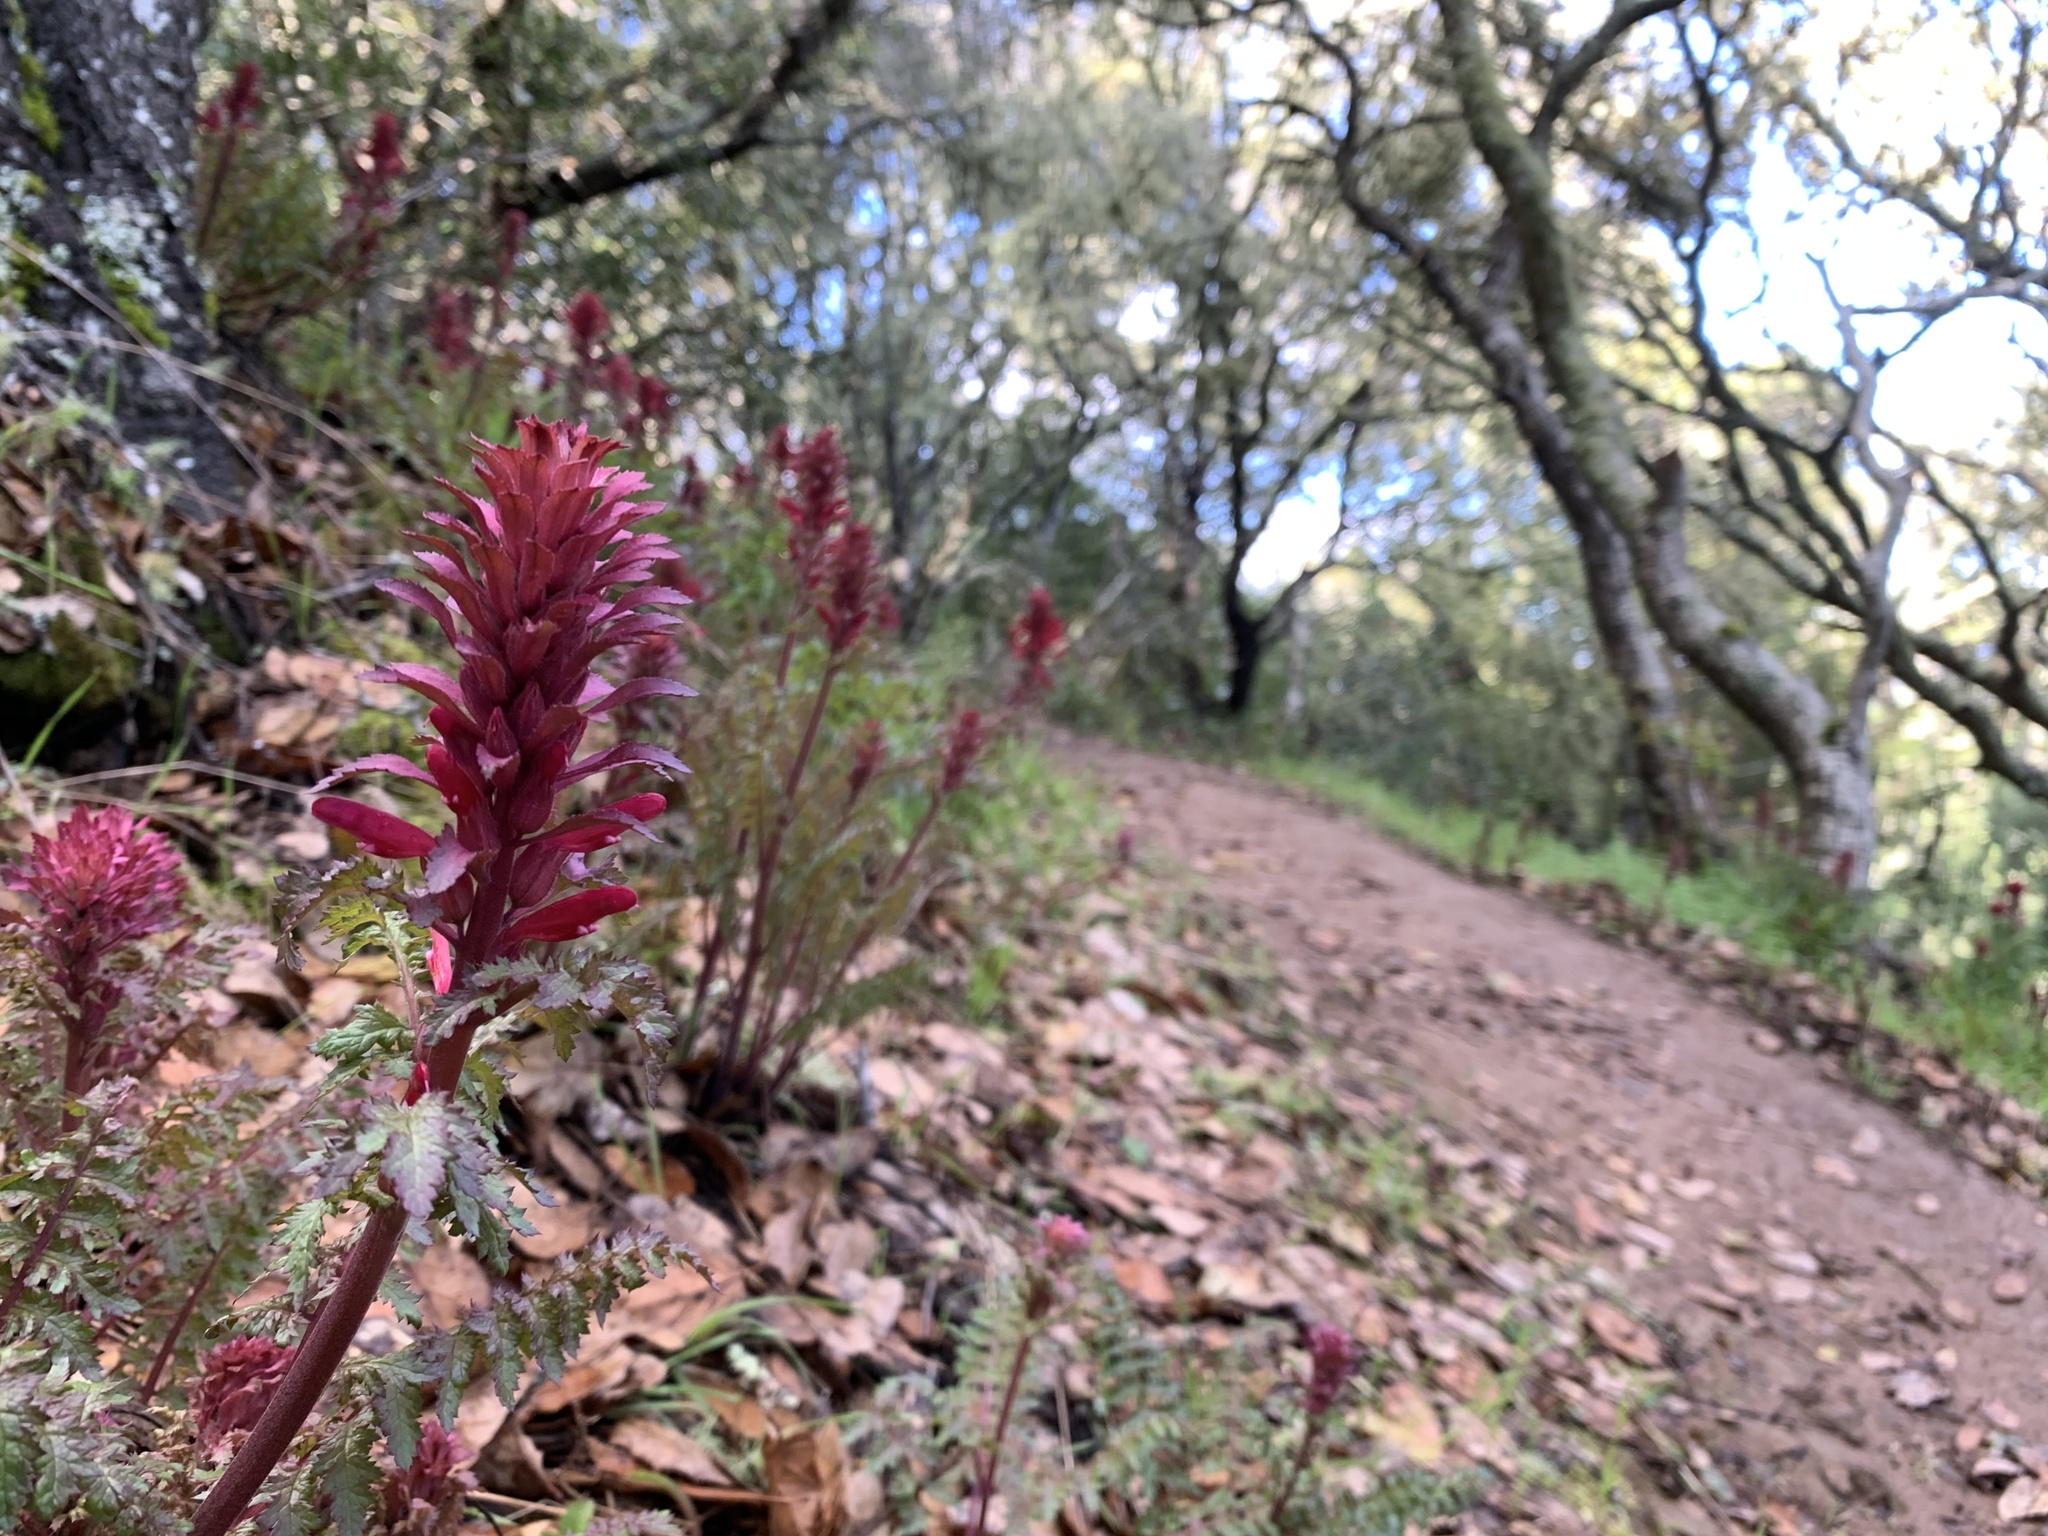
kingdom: Plantae
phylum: Tracheophyta
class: Magnoliopsida
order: Lamiales
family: Orobanchaceae
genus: Pedicularis
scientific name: Pedicularis densiflora
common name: Indian warrior
